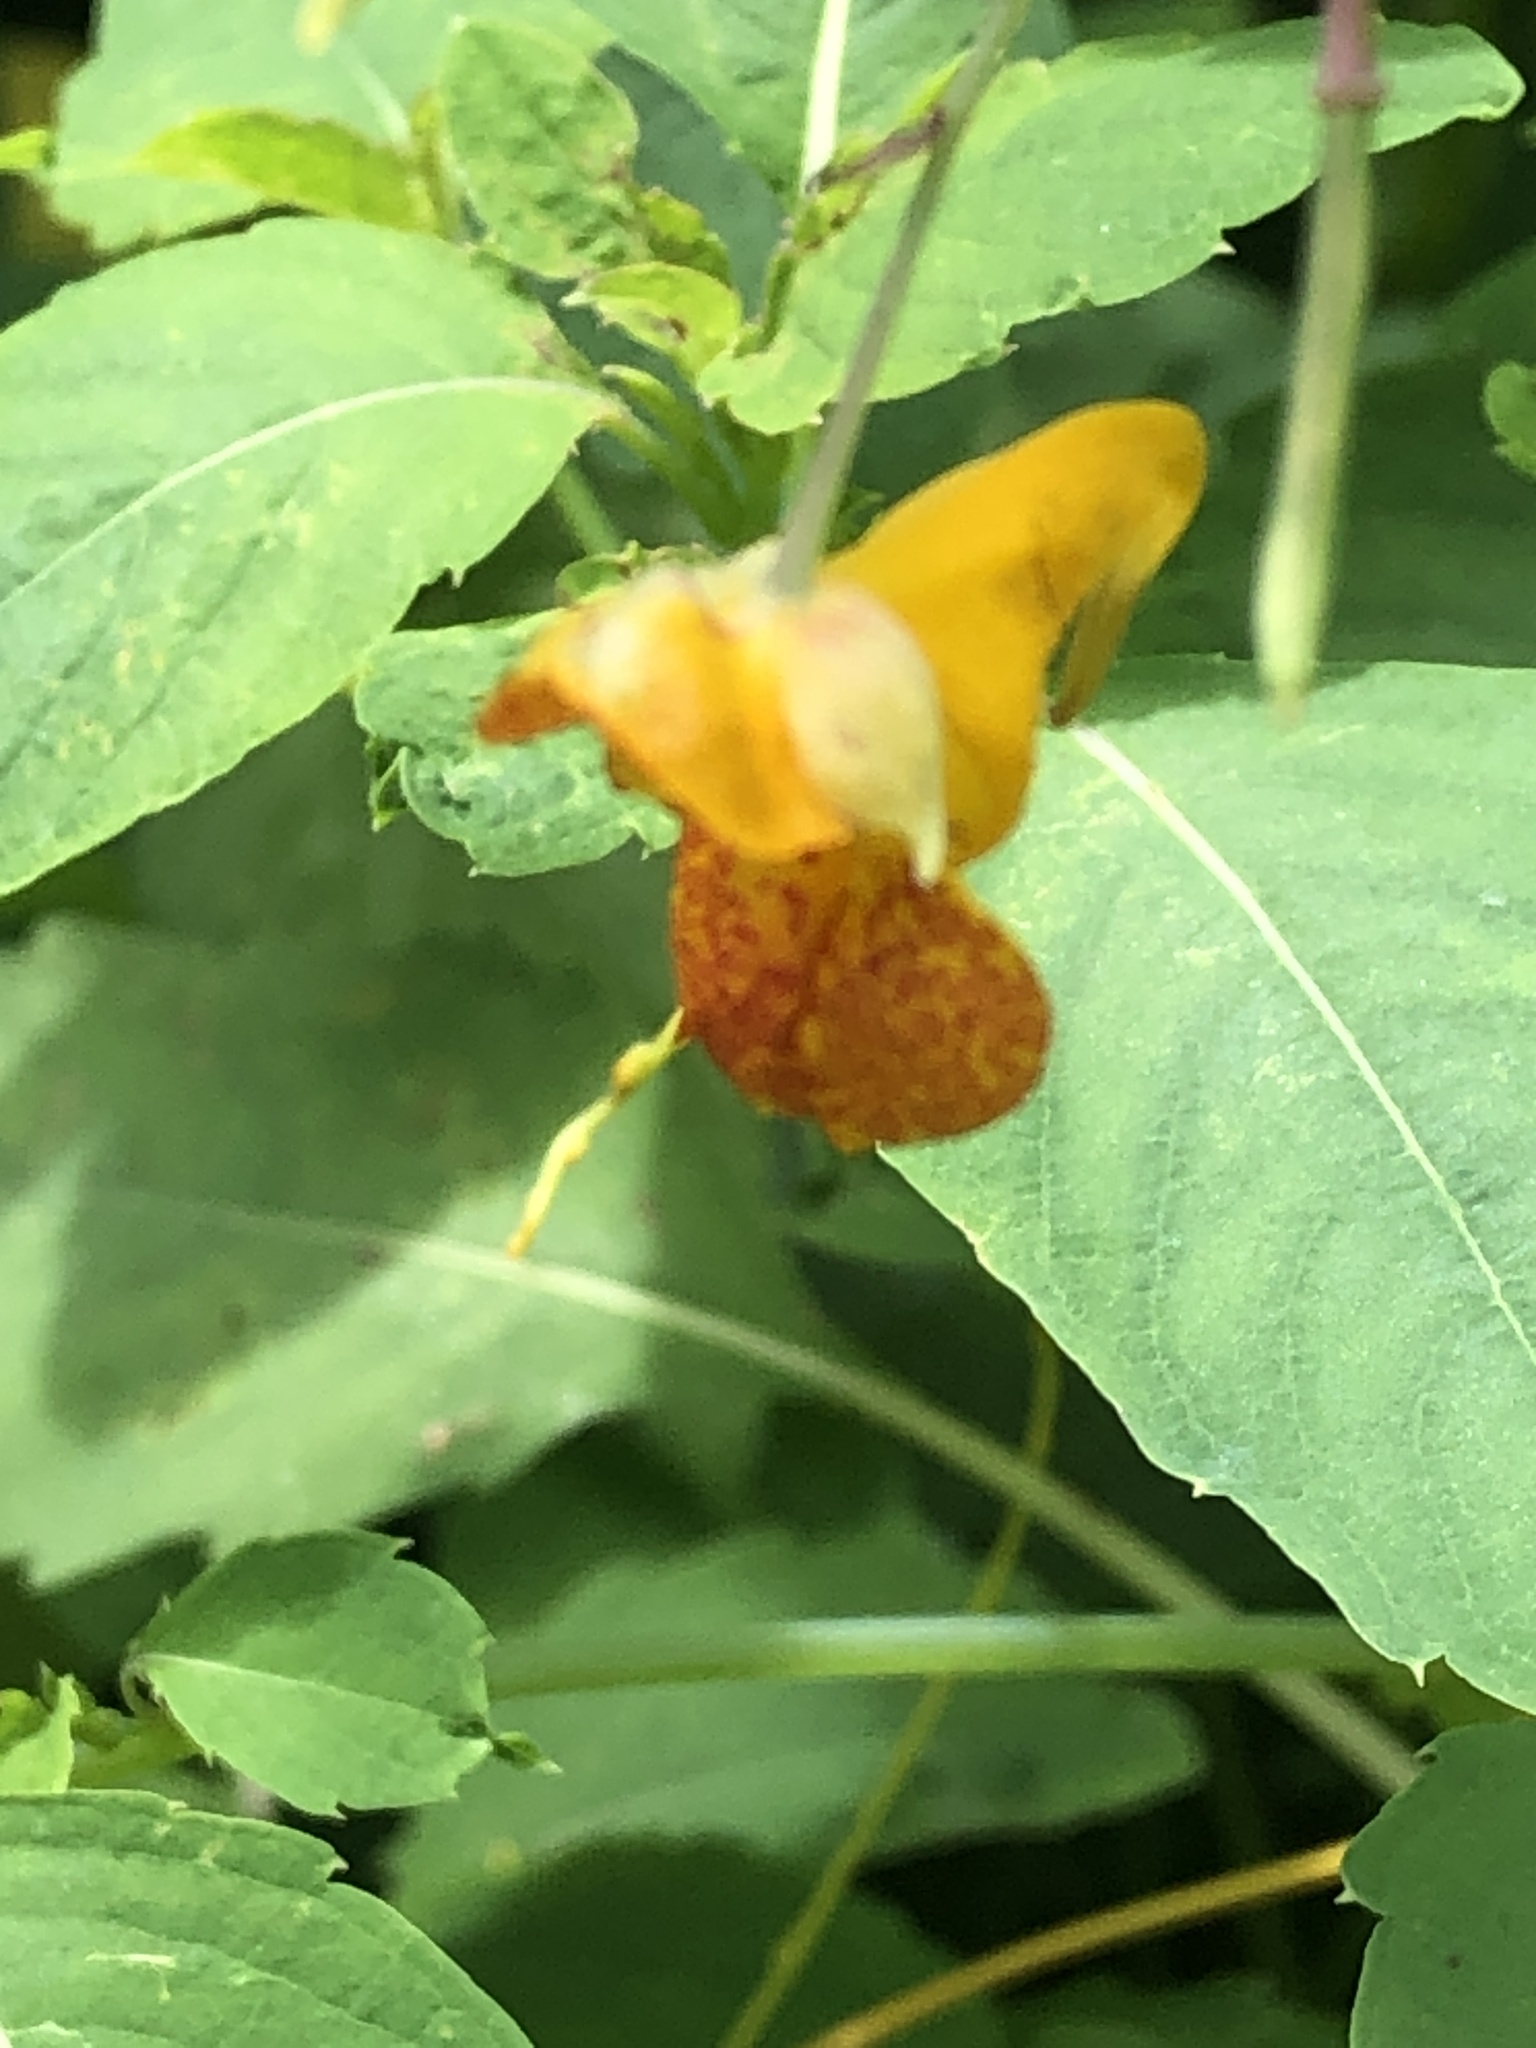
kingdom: Plantae
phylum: Tracheophyta
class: Magnoliopsida
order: Ericales
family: Balsaminaceae
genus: Impatiens
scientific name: Impatiens capensis
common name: Orange balsam
